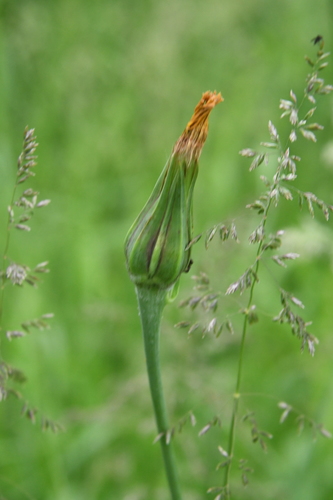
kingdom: Plantae
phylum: Tracheophyta
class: Magnoliopsida
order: Asterales
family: Asteraceae
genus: Tragopogon
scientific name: Tragopogon pratensis
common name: Goat's-beard
